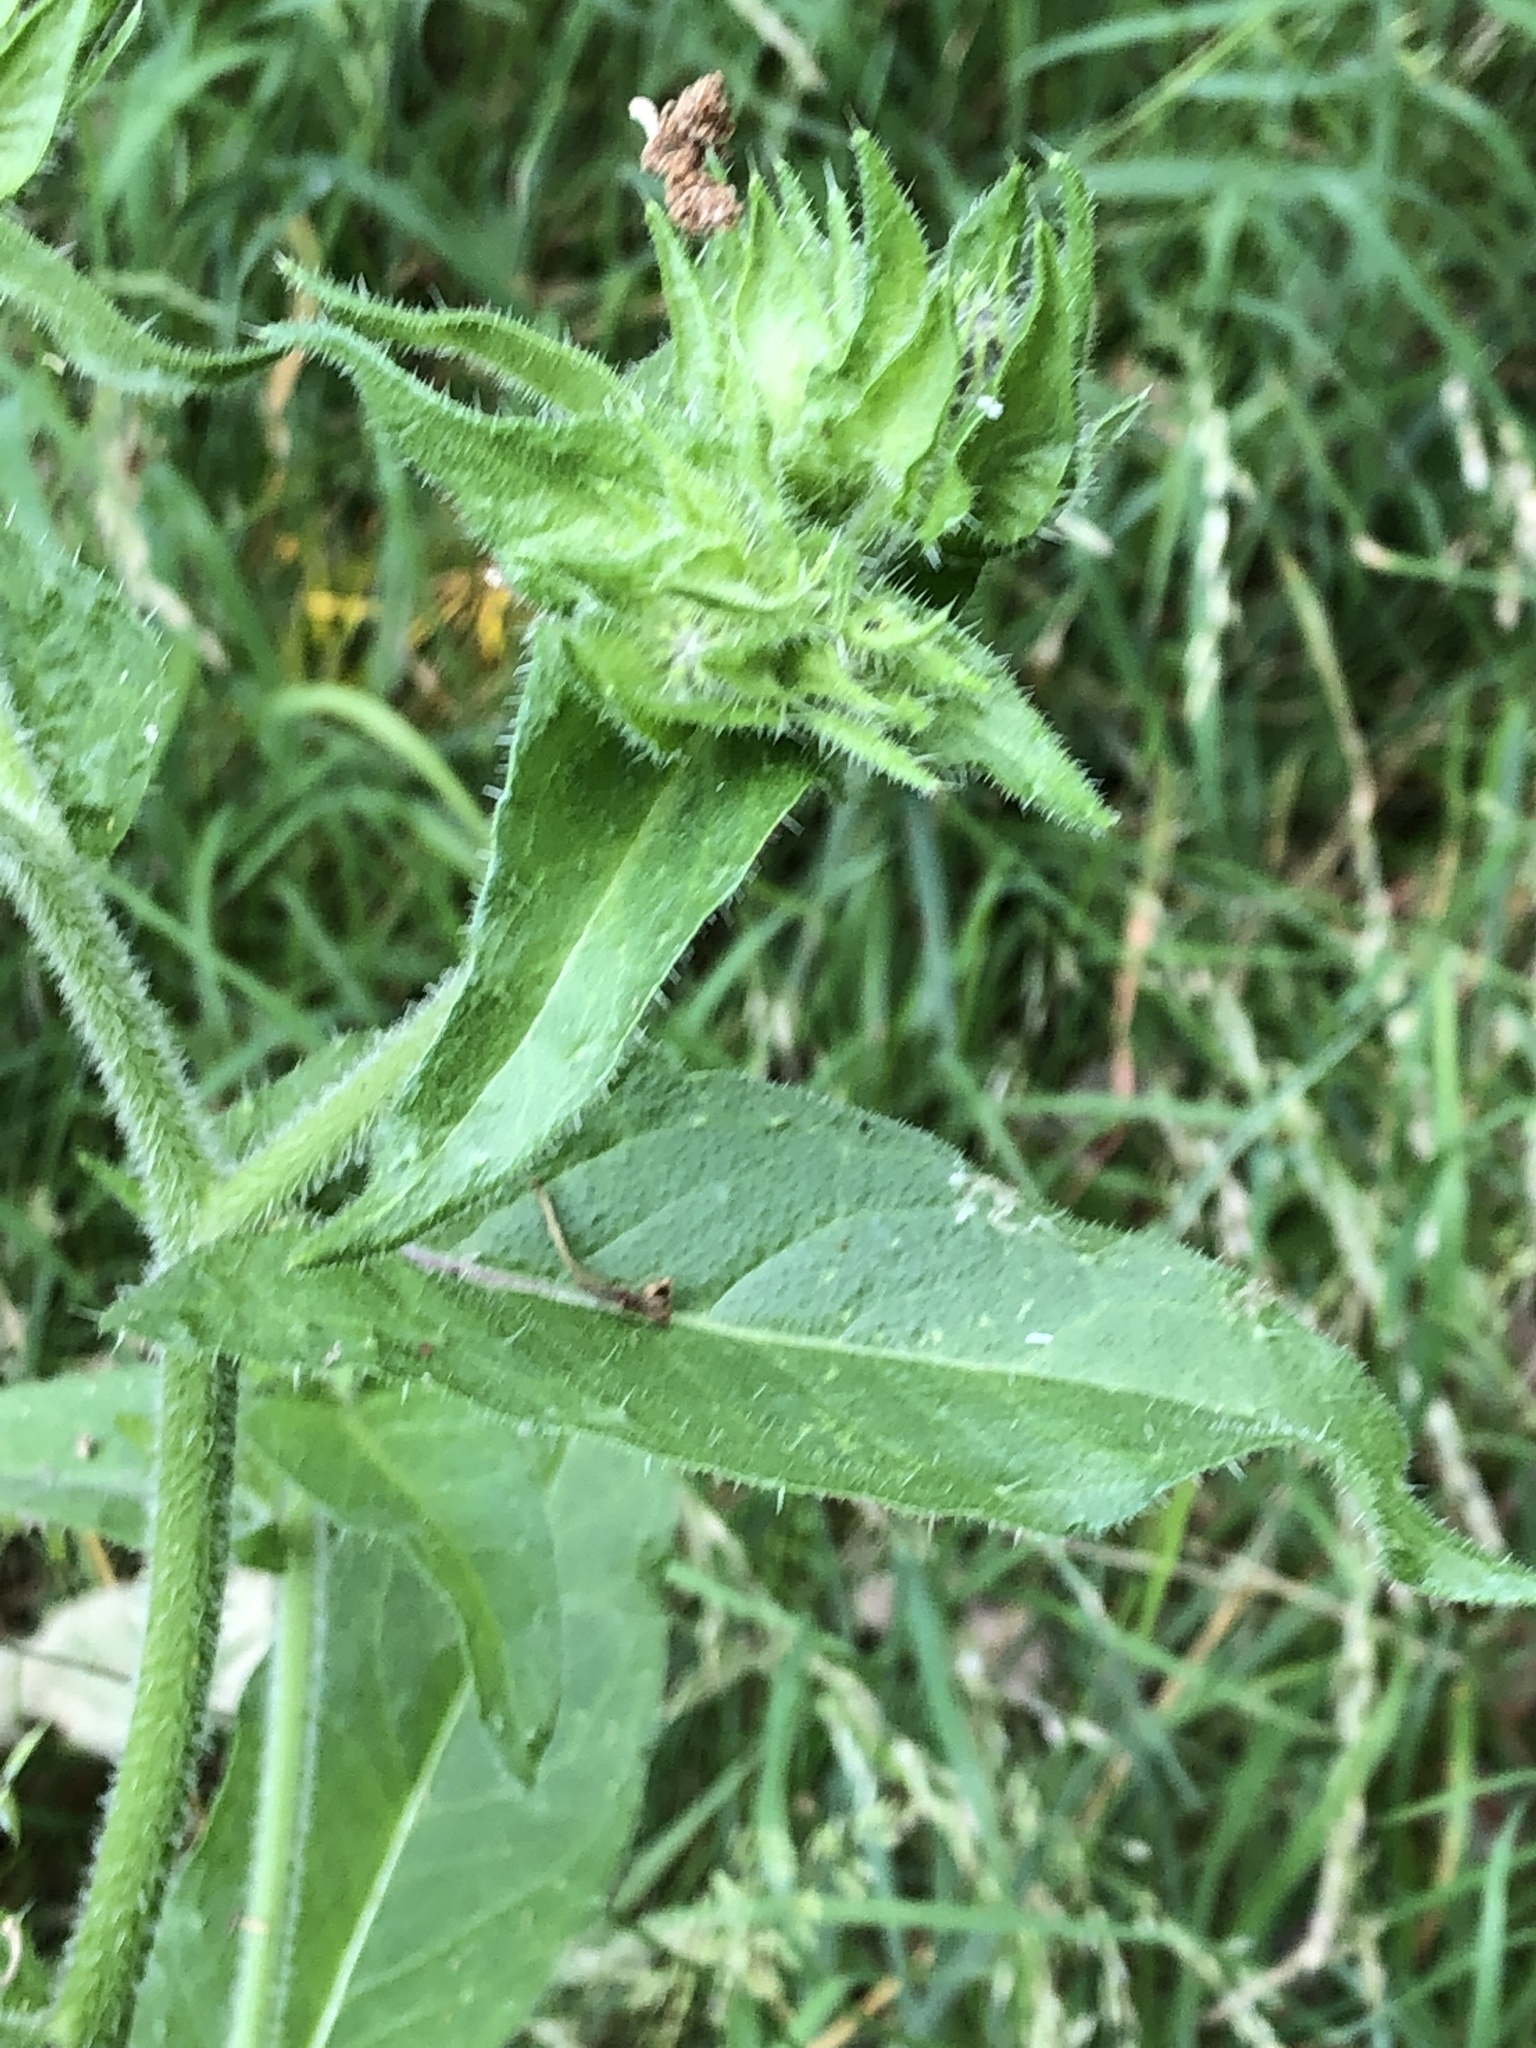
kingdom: Plantae
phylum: Tracheophyta
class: Magnoliopsida
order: Asterales
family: Asteraceae
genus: Helminthotheca
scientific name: Helminthotheca echioides
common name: Ox-tongue
